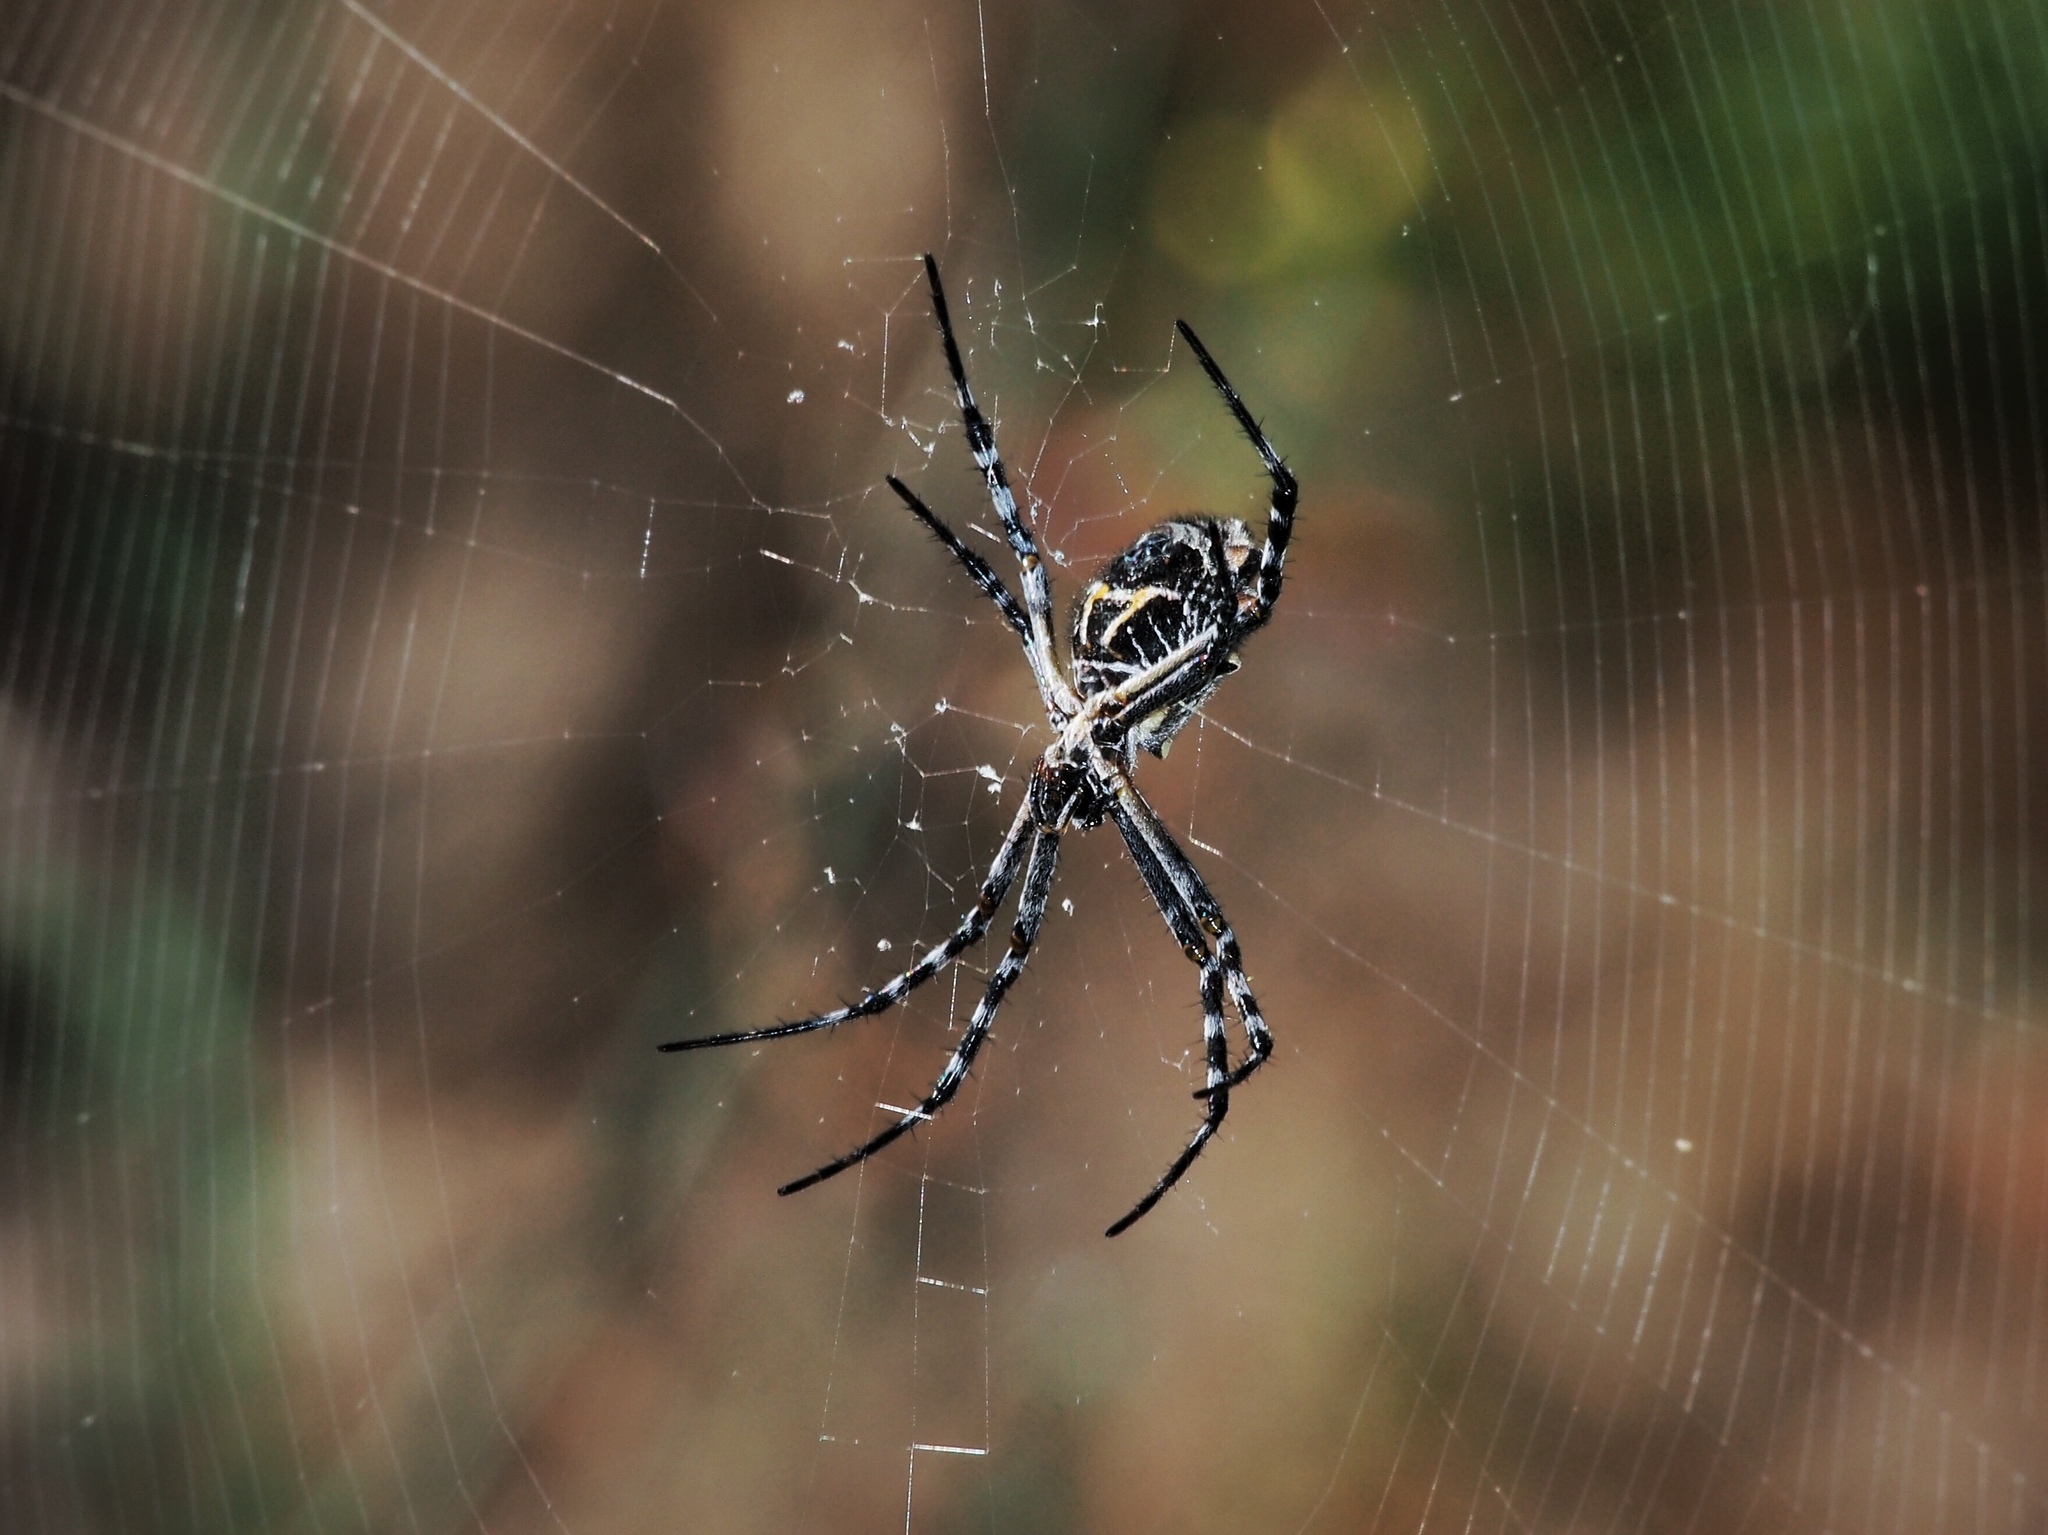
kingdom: Animalia
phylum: Arthropoda
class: Arachnida
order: Araneae
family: Araneidae
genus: Argiope
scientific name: Argiope argentata
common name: Orb weavers
